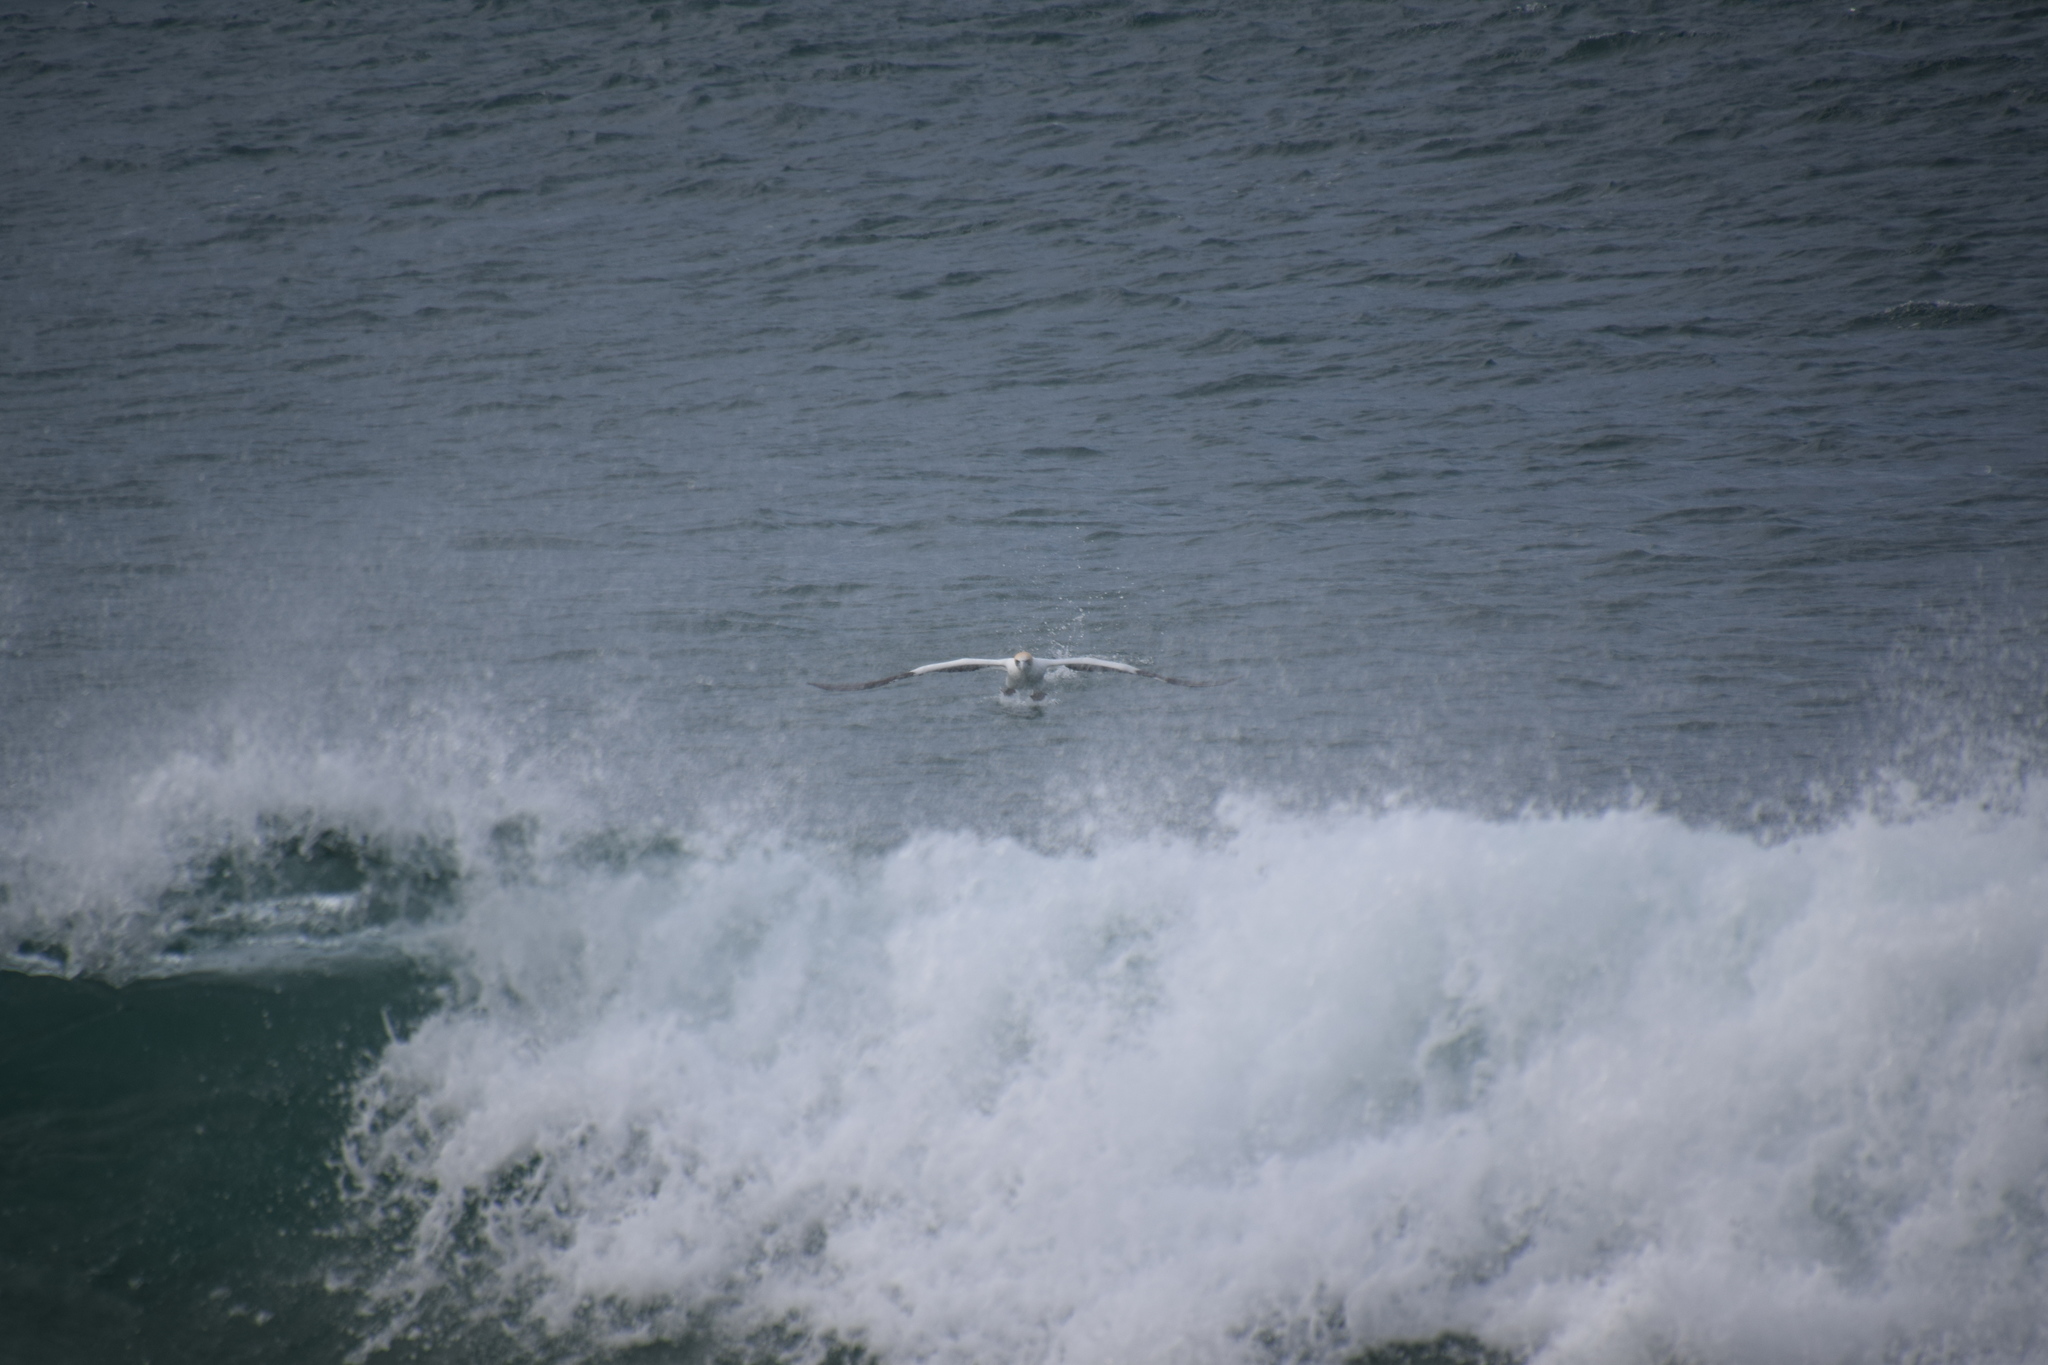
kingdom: Animalia
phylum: Chordata
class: Aves
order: Suliformes
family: Sulidae
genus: Morus
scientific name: Morus serrator
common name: Australasian gannet
